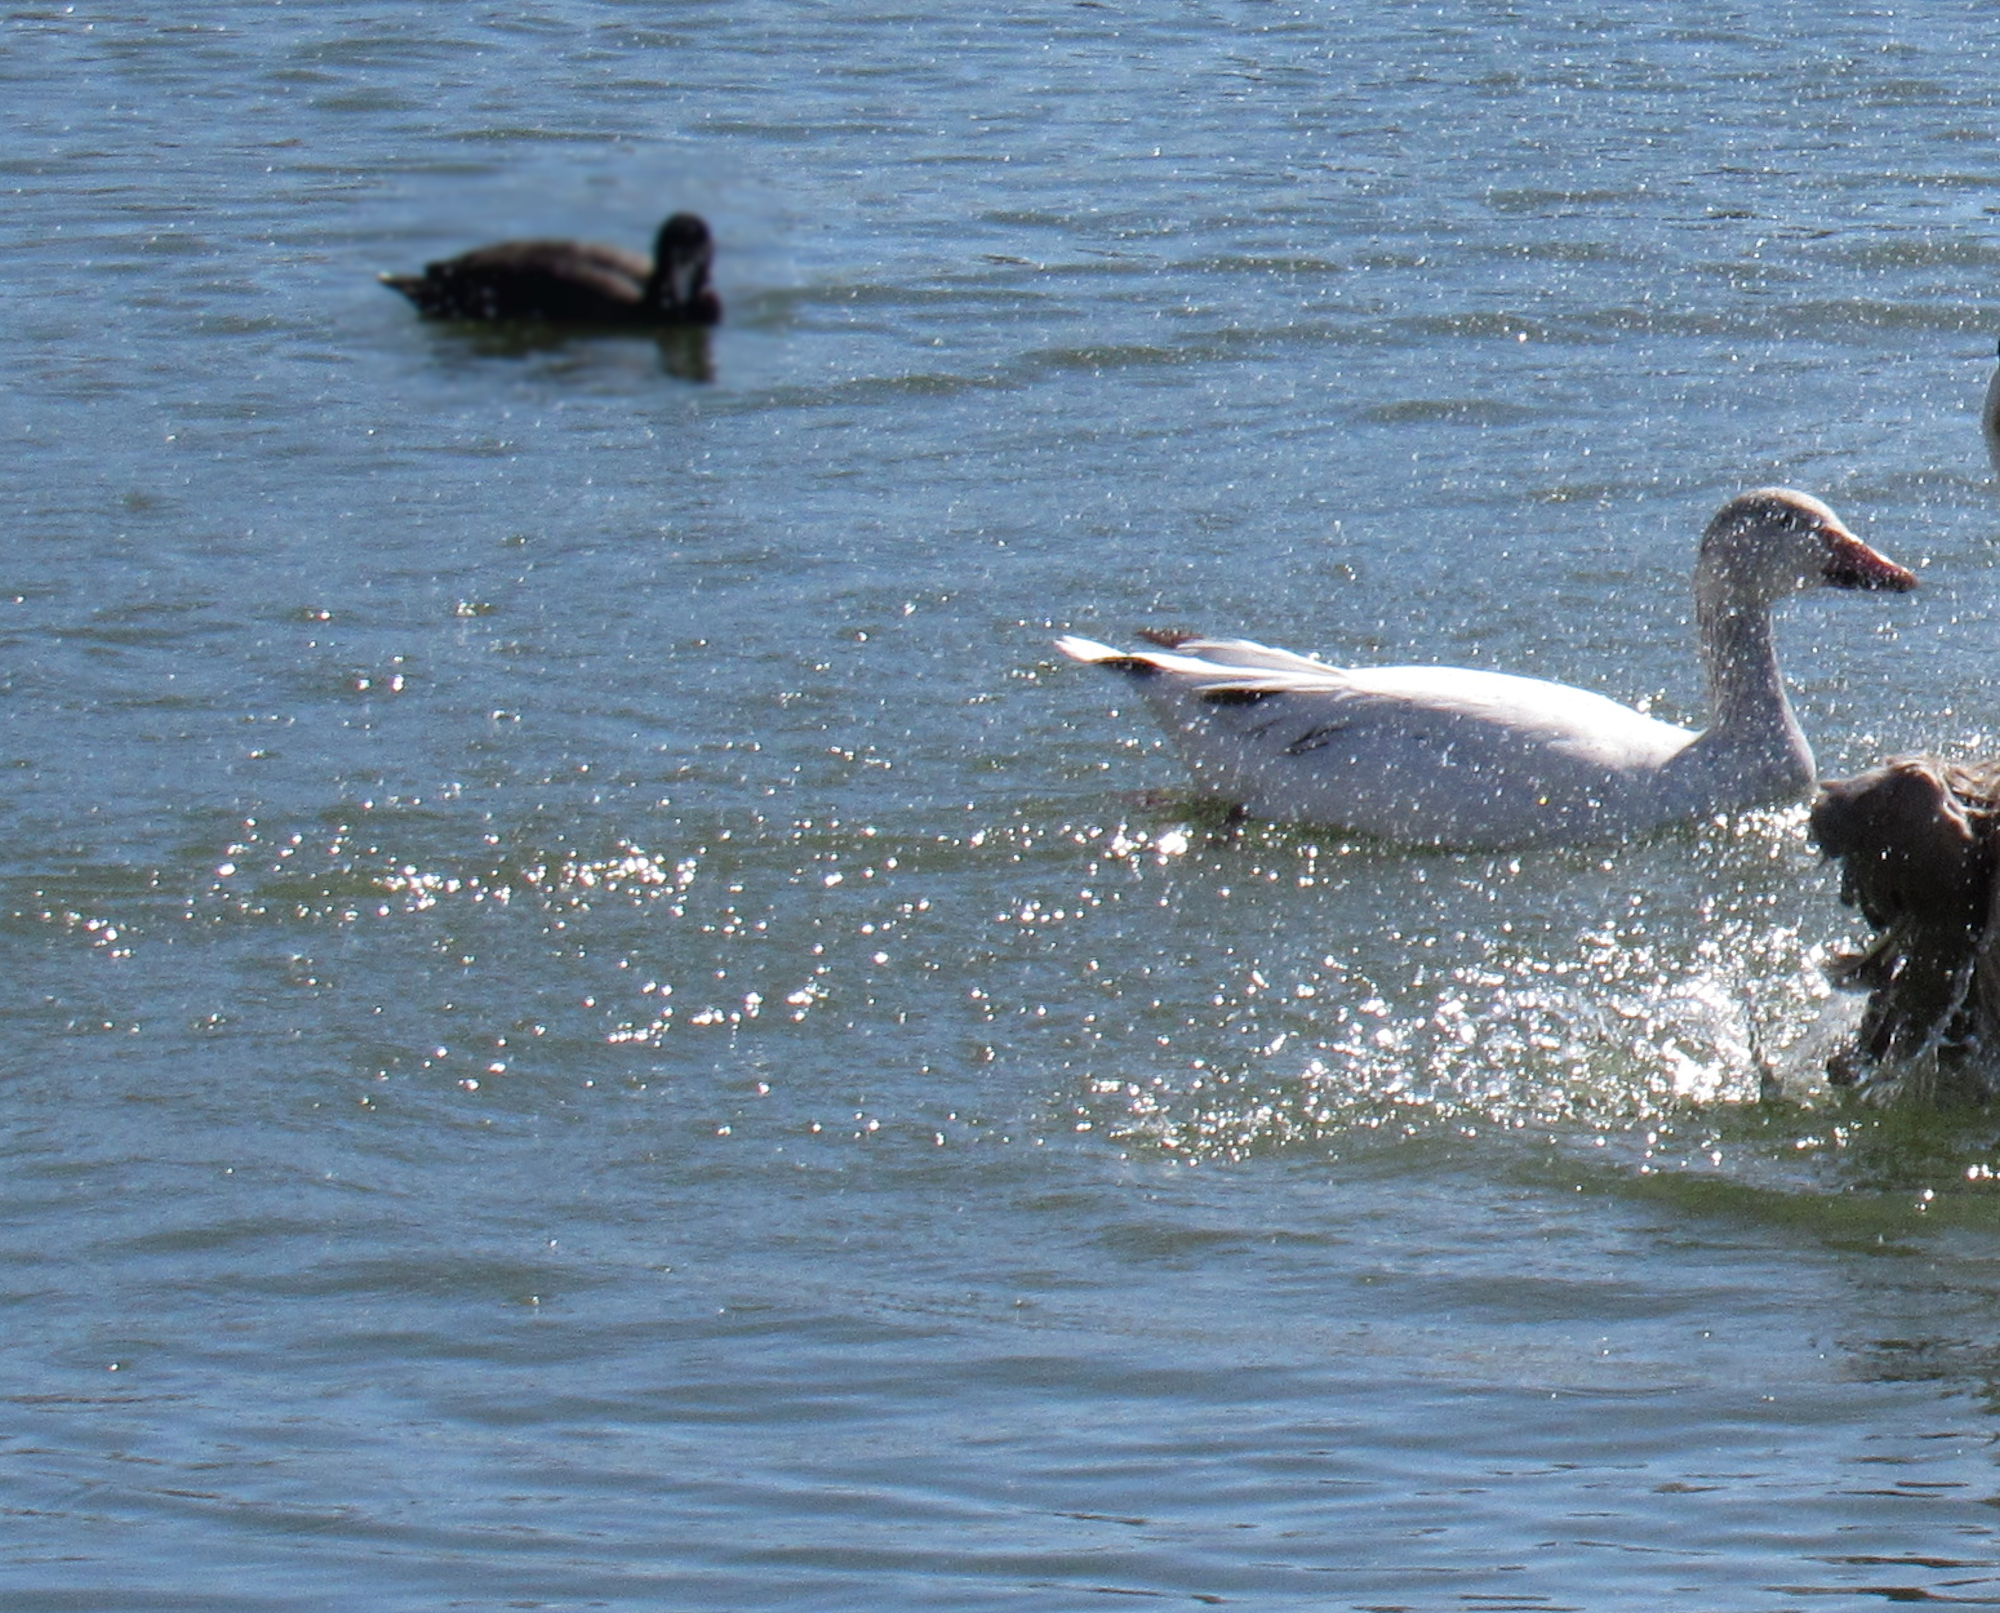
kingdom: Animalia
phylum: Chordata
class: Aves
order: Anseriformes
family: Anatidae
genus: Anser
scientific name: Anser caerulescens
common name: Snow goose
